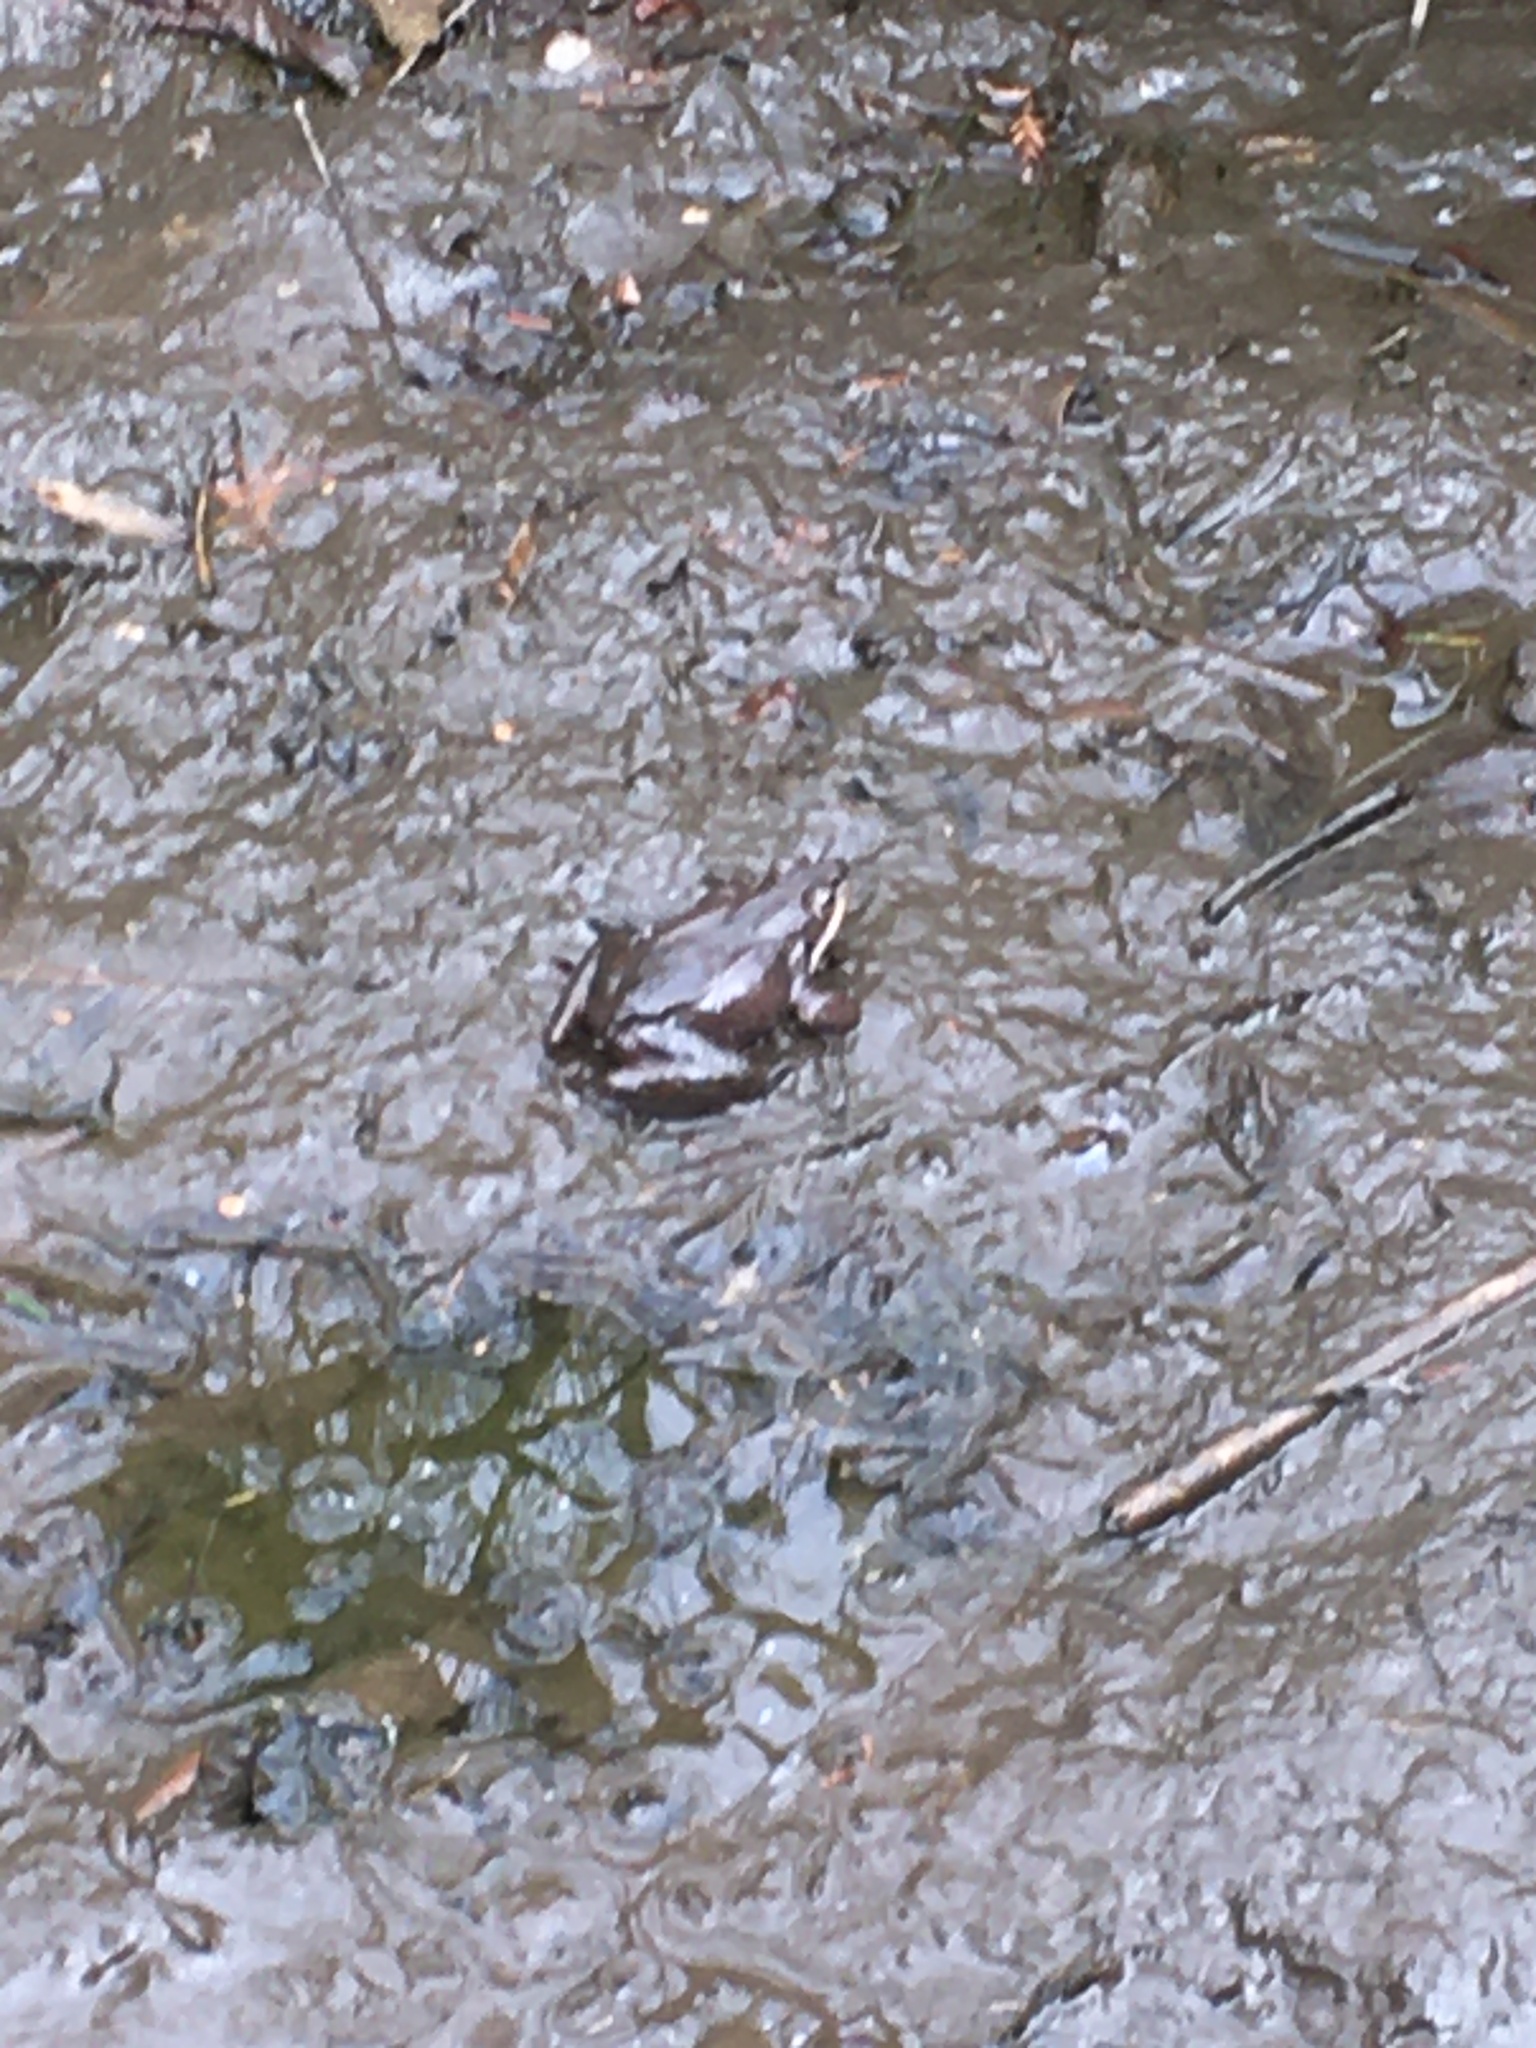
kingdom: Animalia
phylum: Chordata
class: Amphibia
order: Anura
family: Ranidae
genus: Lithobates
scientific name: Lithobates sylvaticus
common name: Wood frog
